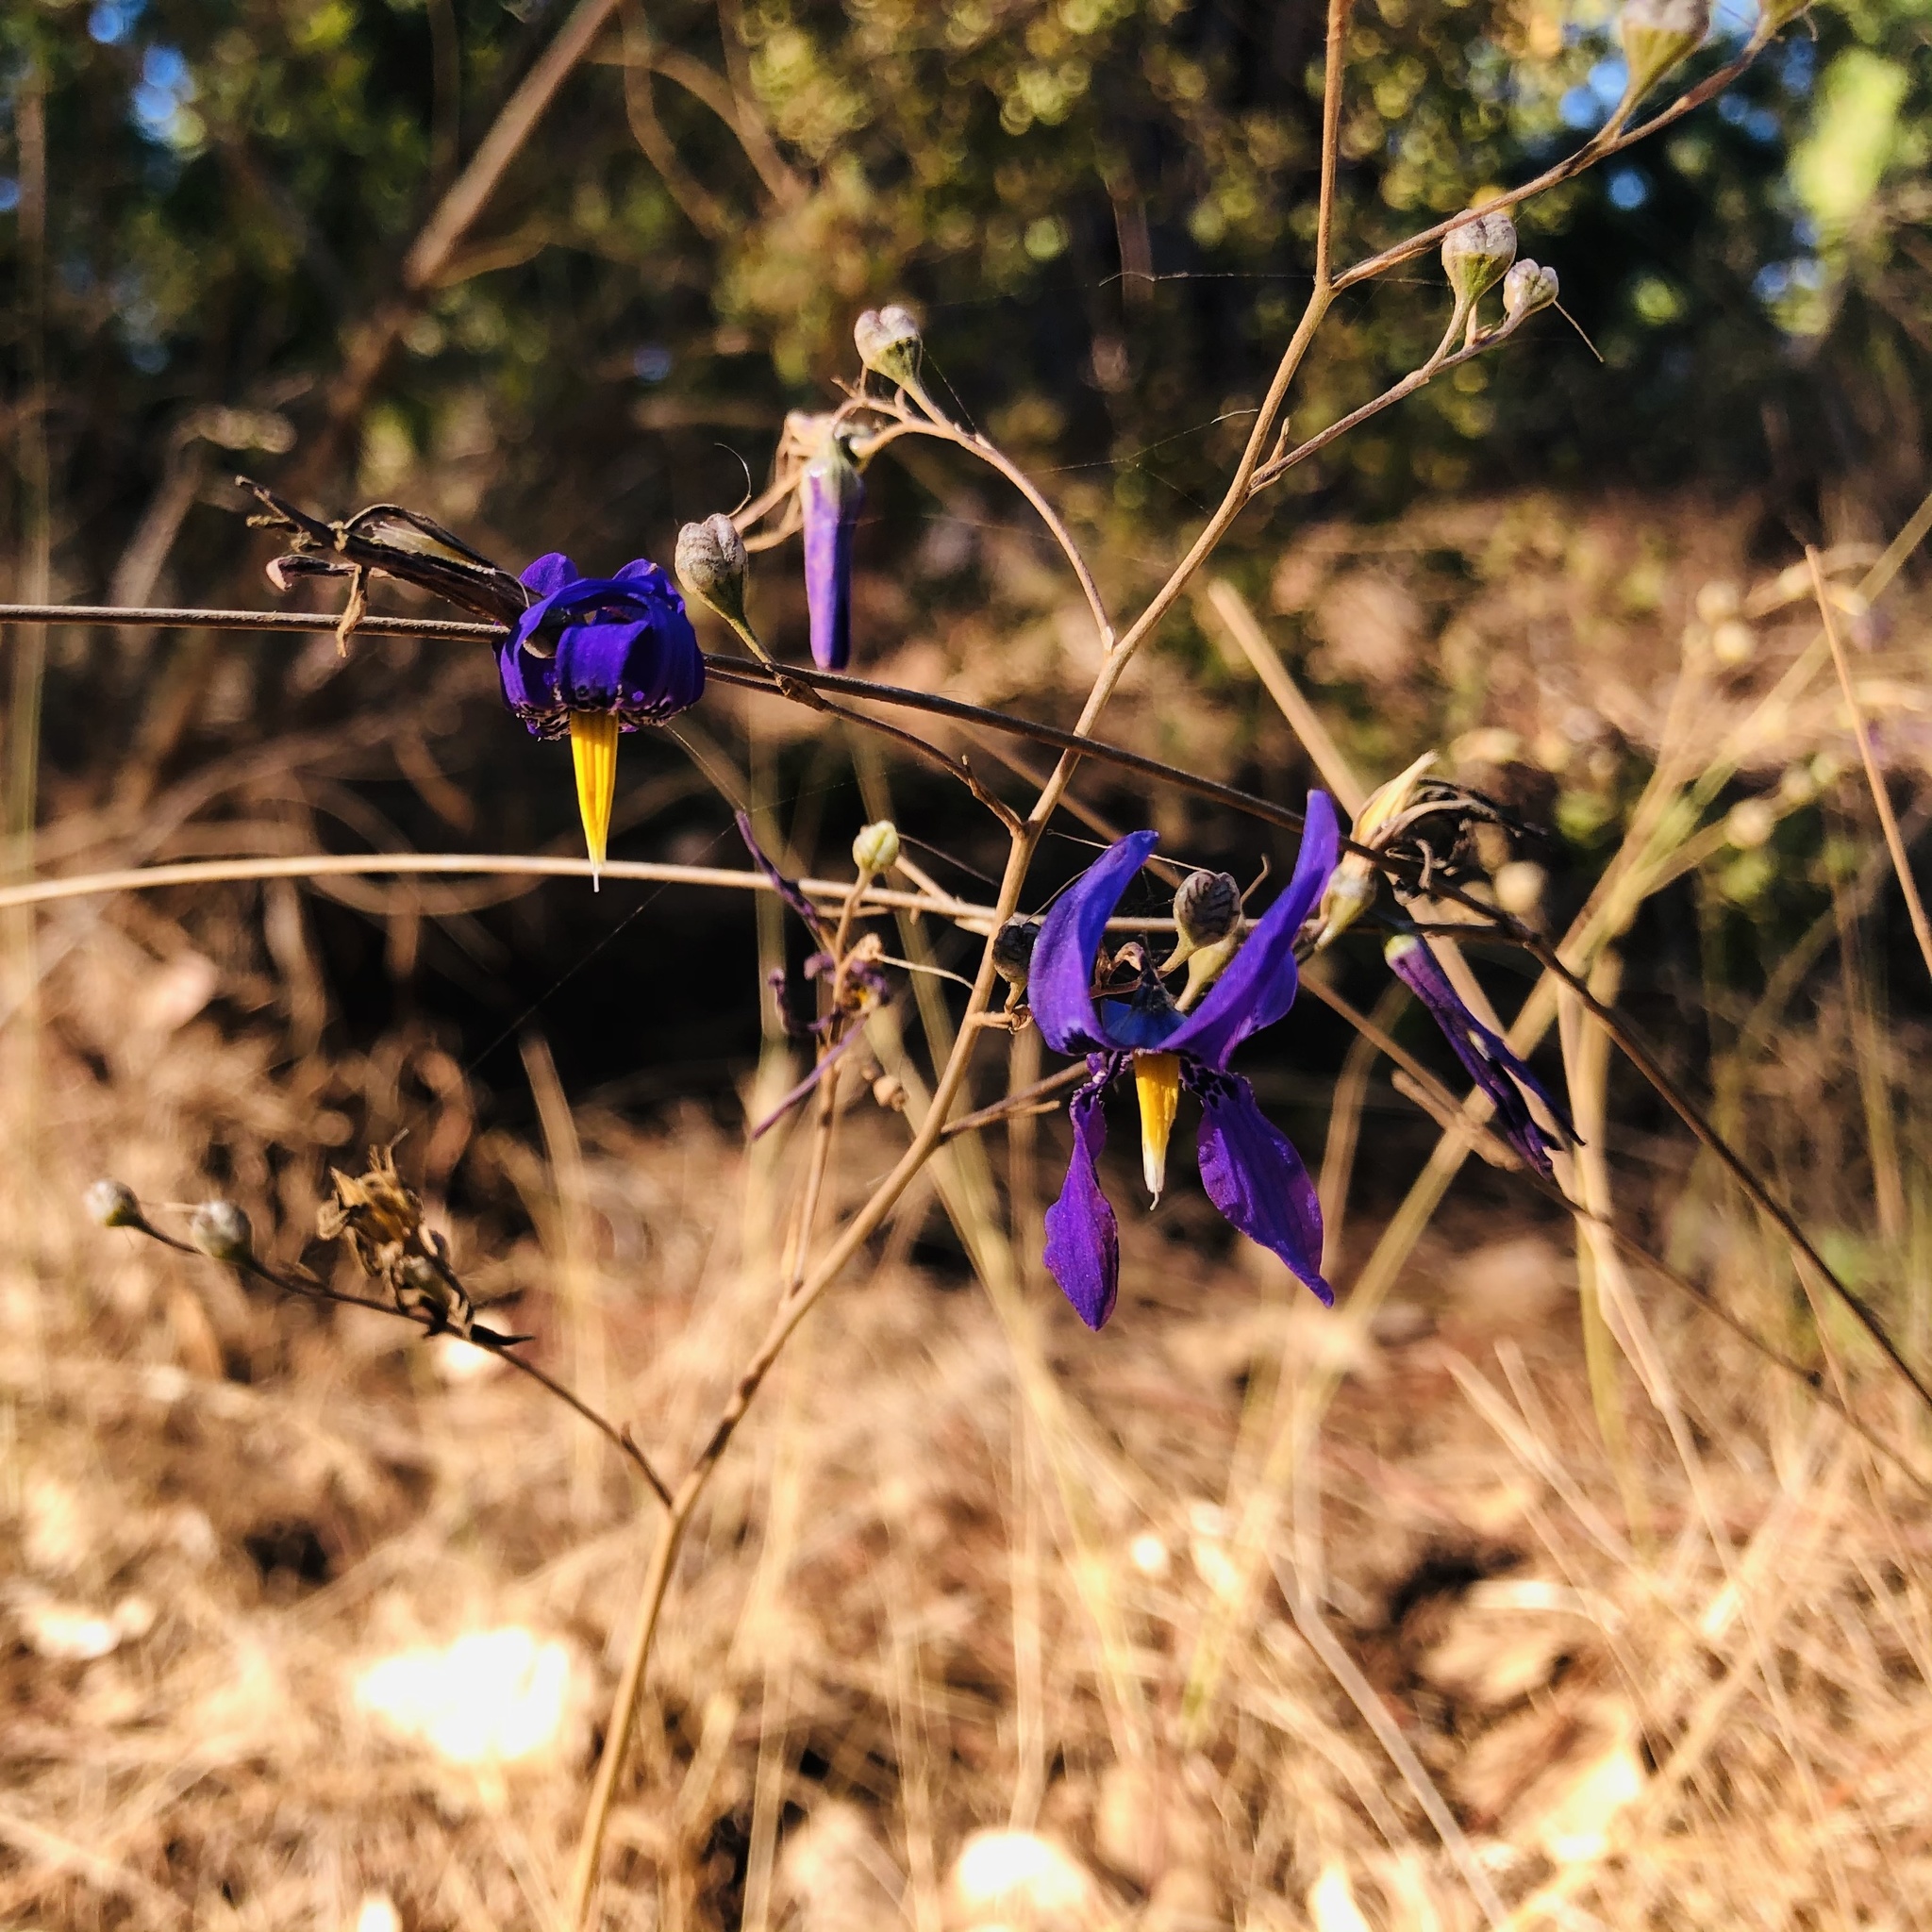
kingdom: Plantae
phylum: Tracheophyta
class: Liliopsida
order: Asparagales
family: Tecophilaeaceae
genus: Conanthera
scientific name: Conanthera bifolia
